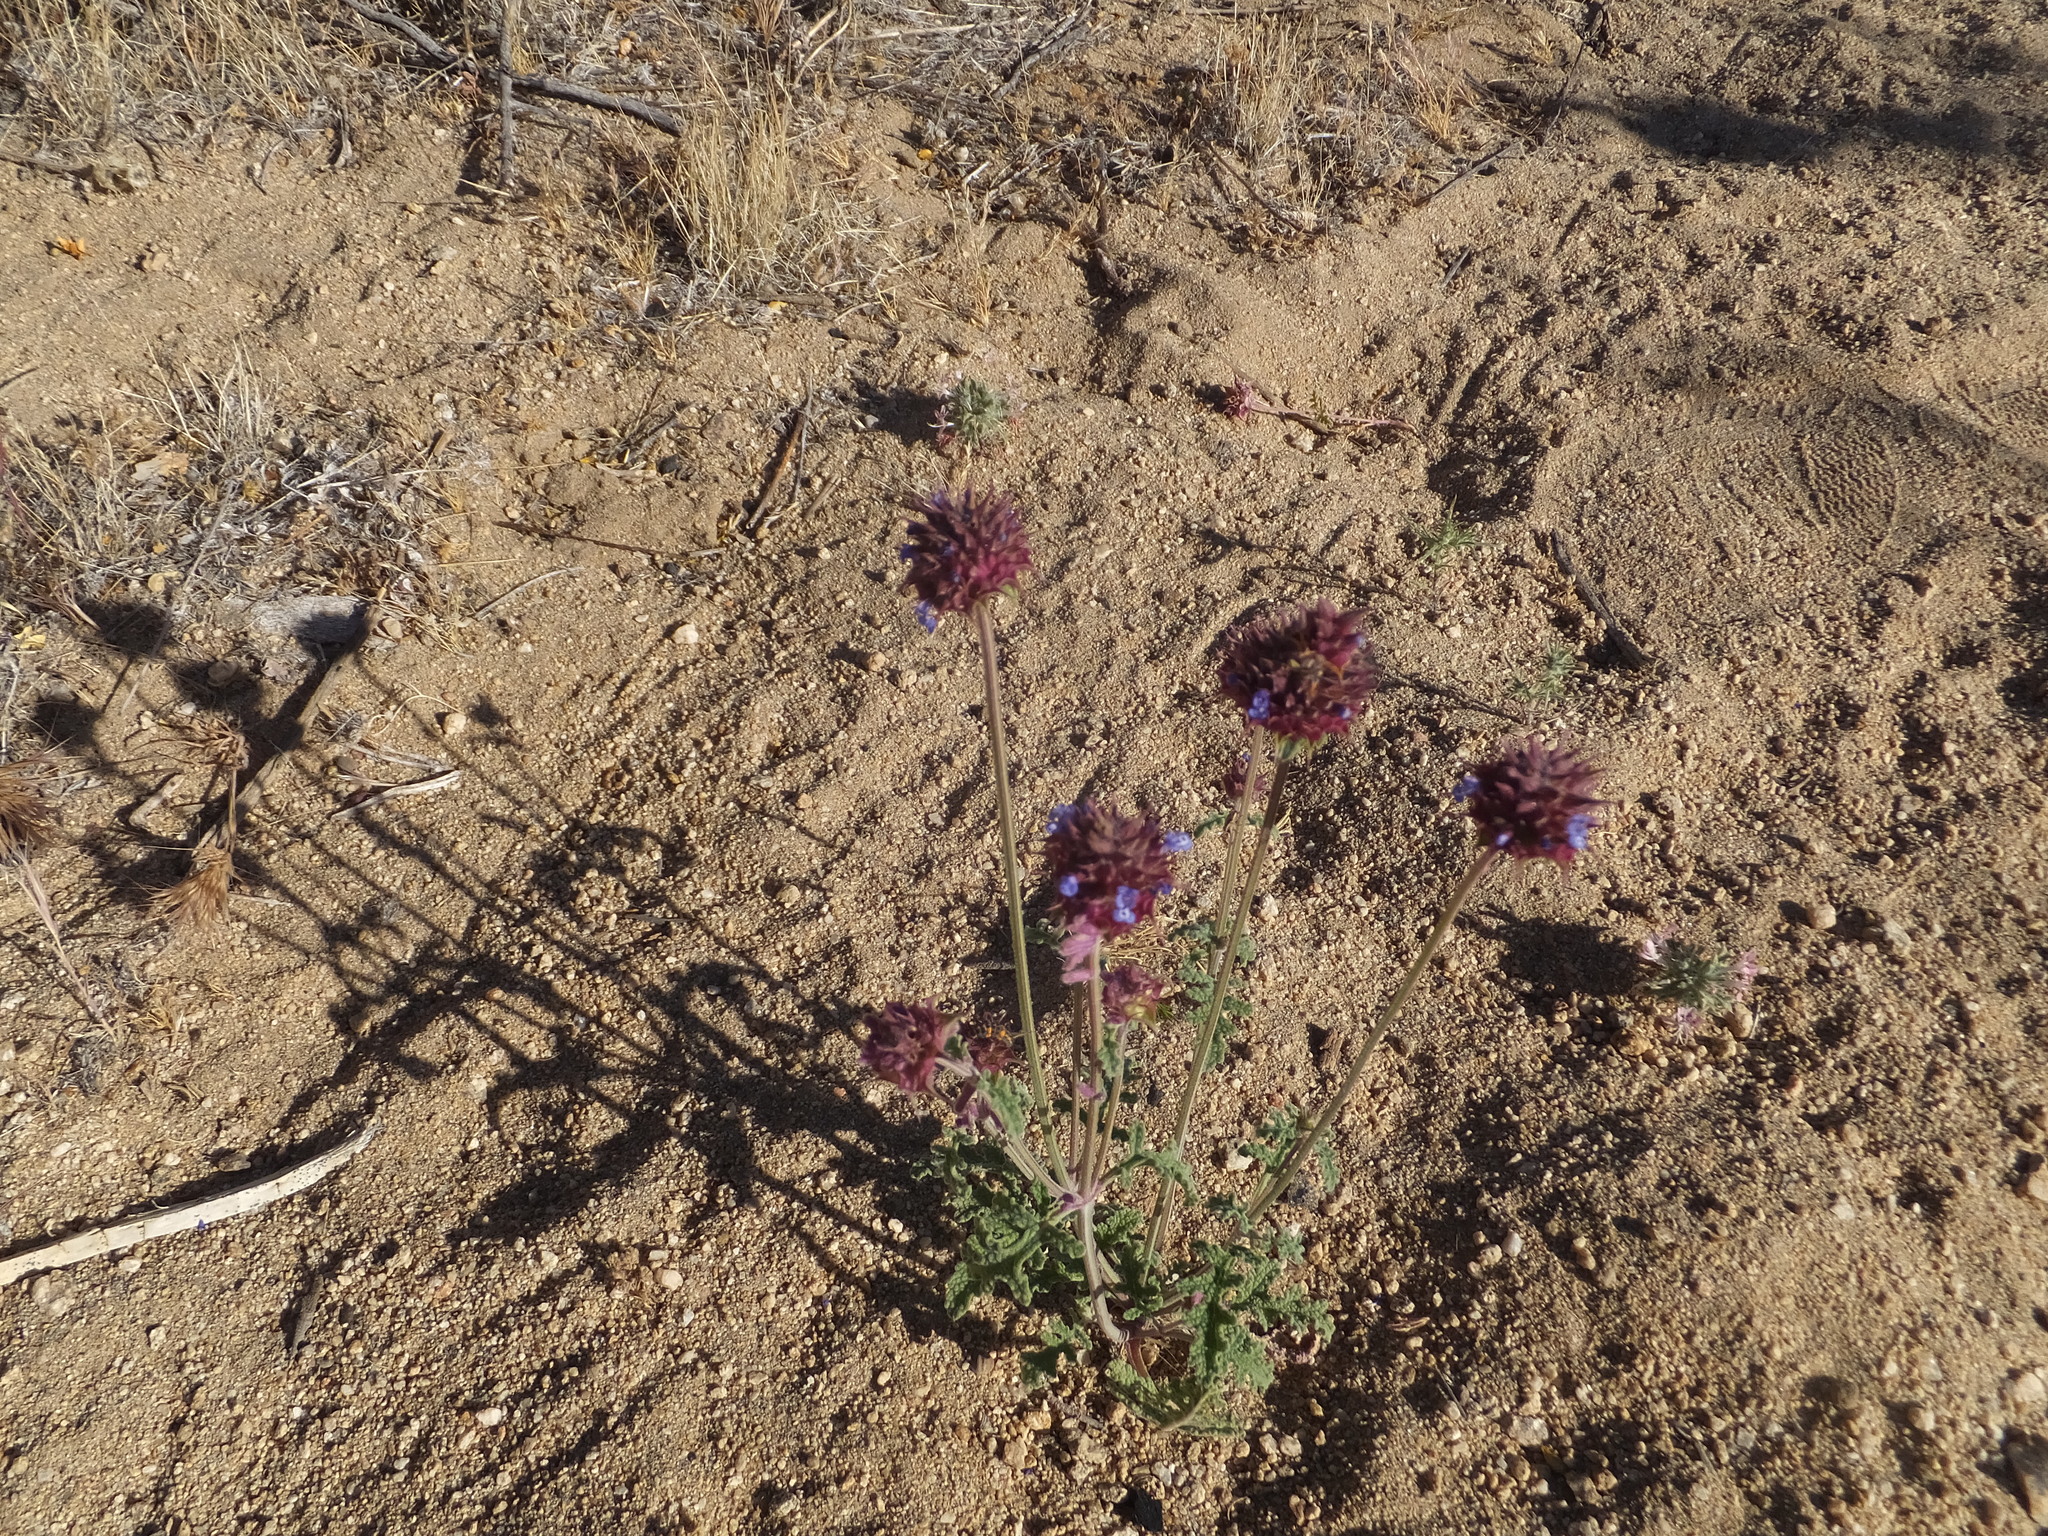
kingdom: Plantae
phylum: Tracheophyta
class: Magnoliopsida
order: Lamiales
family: Lamiaceae
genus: Salvia
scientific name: Salvia columbariae
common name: Chia
